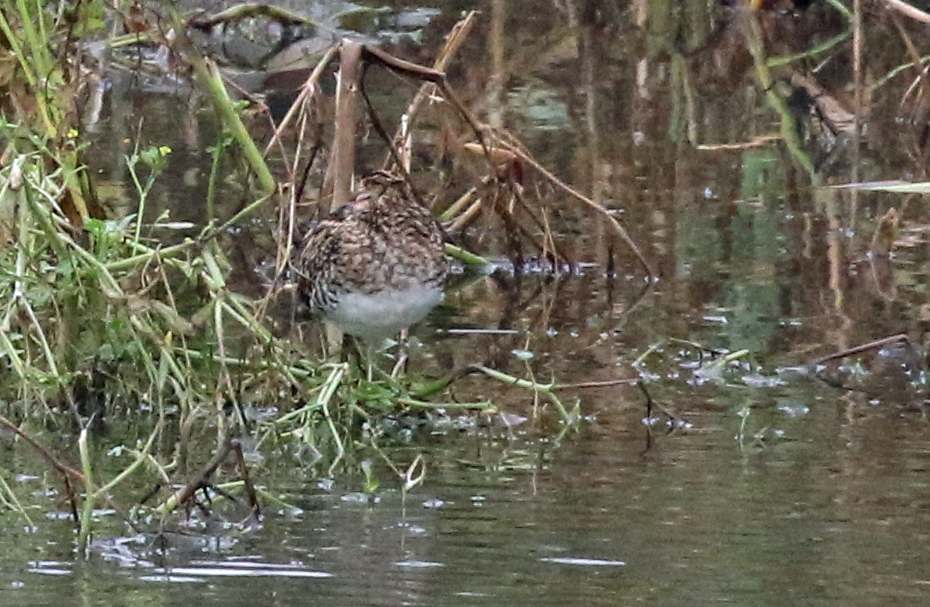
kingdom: Animalia
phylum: Chordata
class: Aves
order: Charadriiformes
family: Scolopacidae
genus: Gallinago
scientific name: Gallinago gallinago
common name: Common snipe
